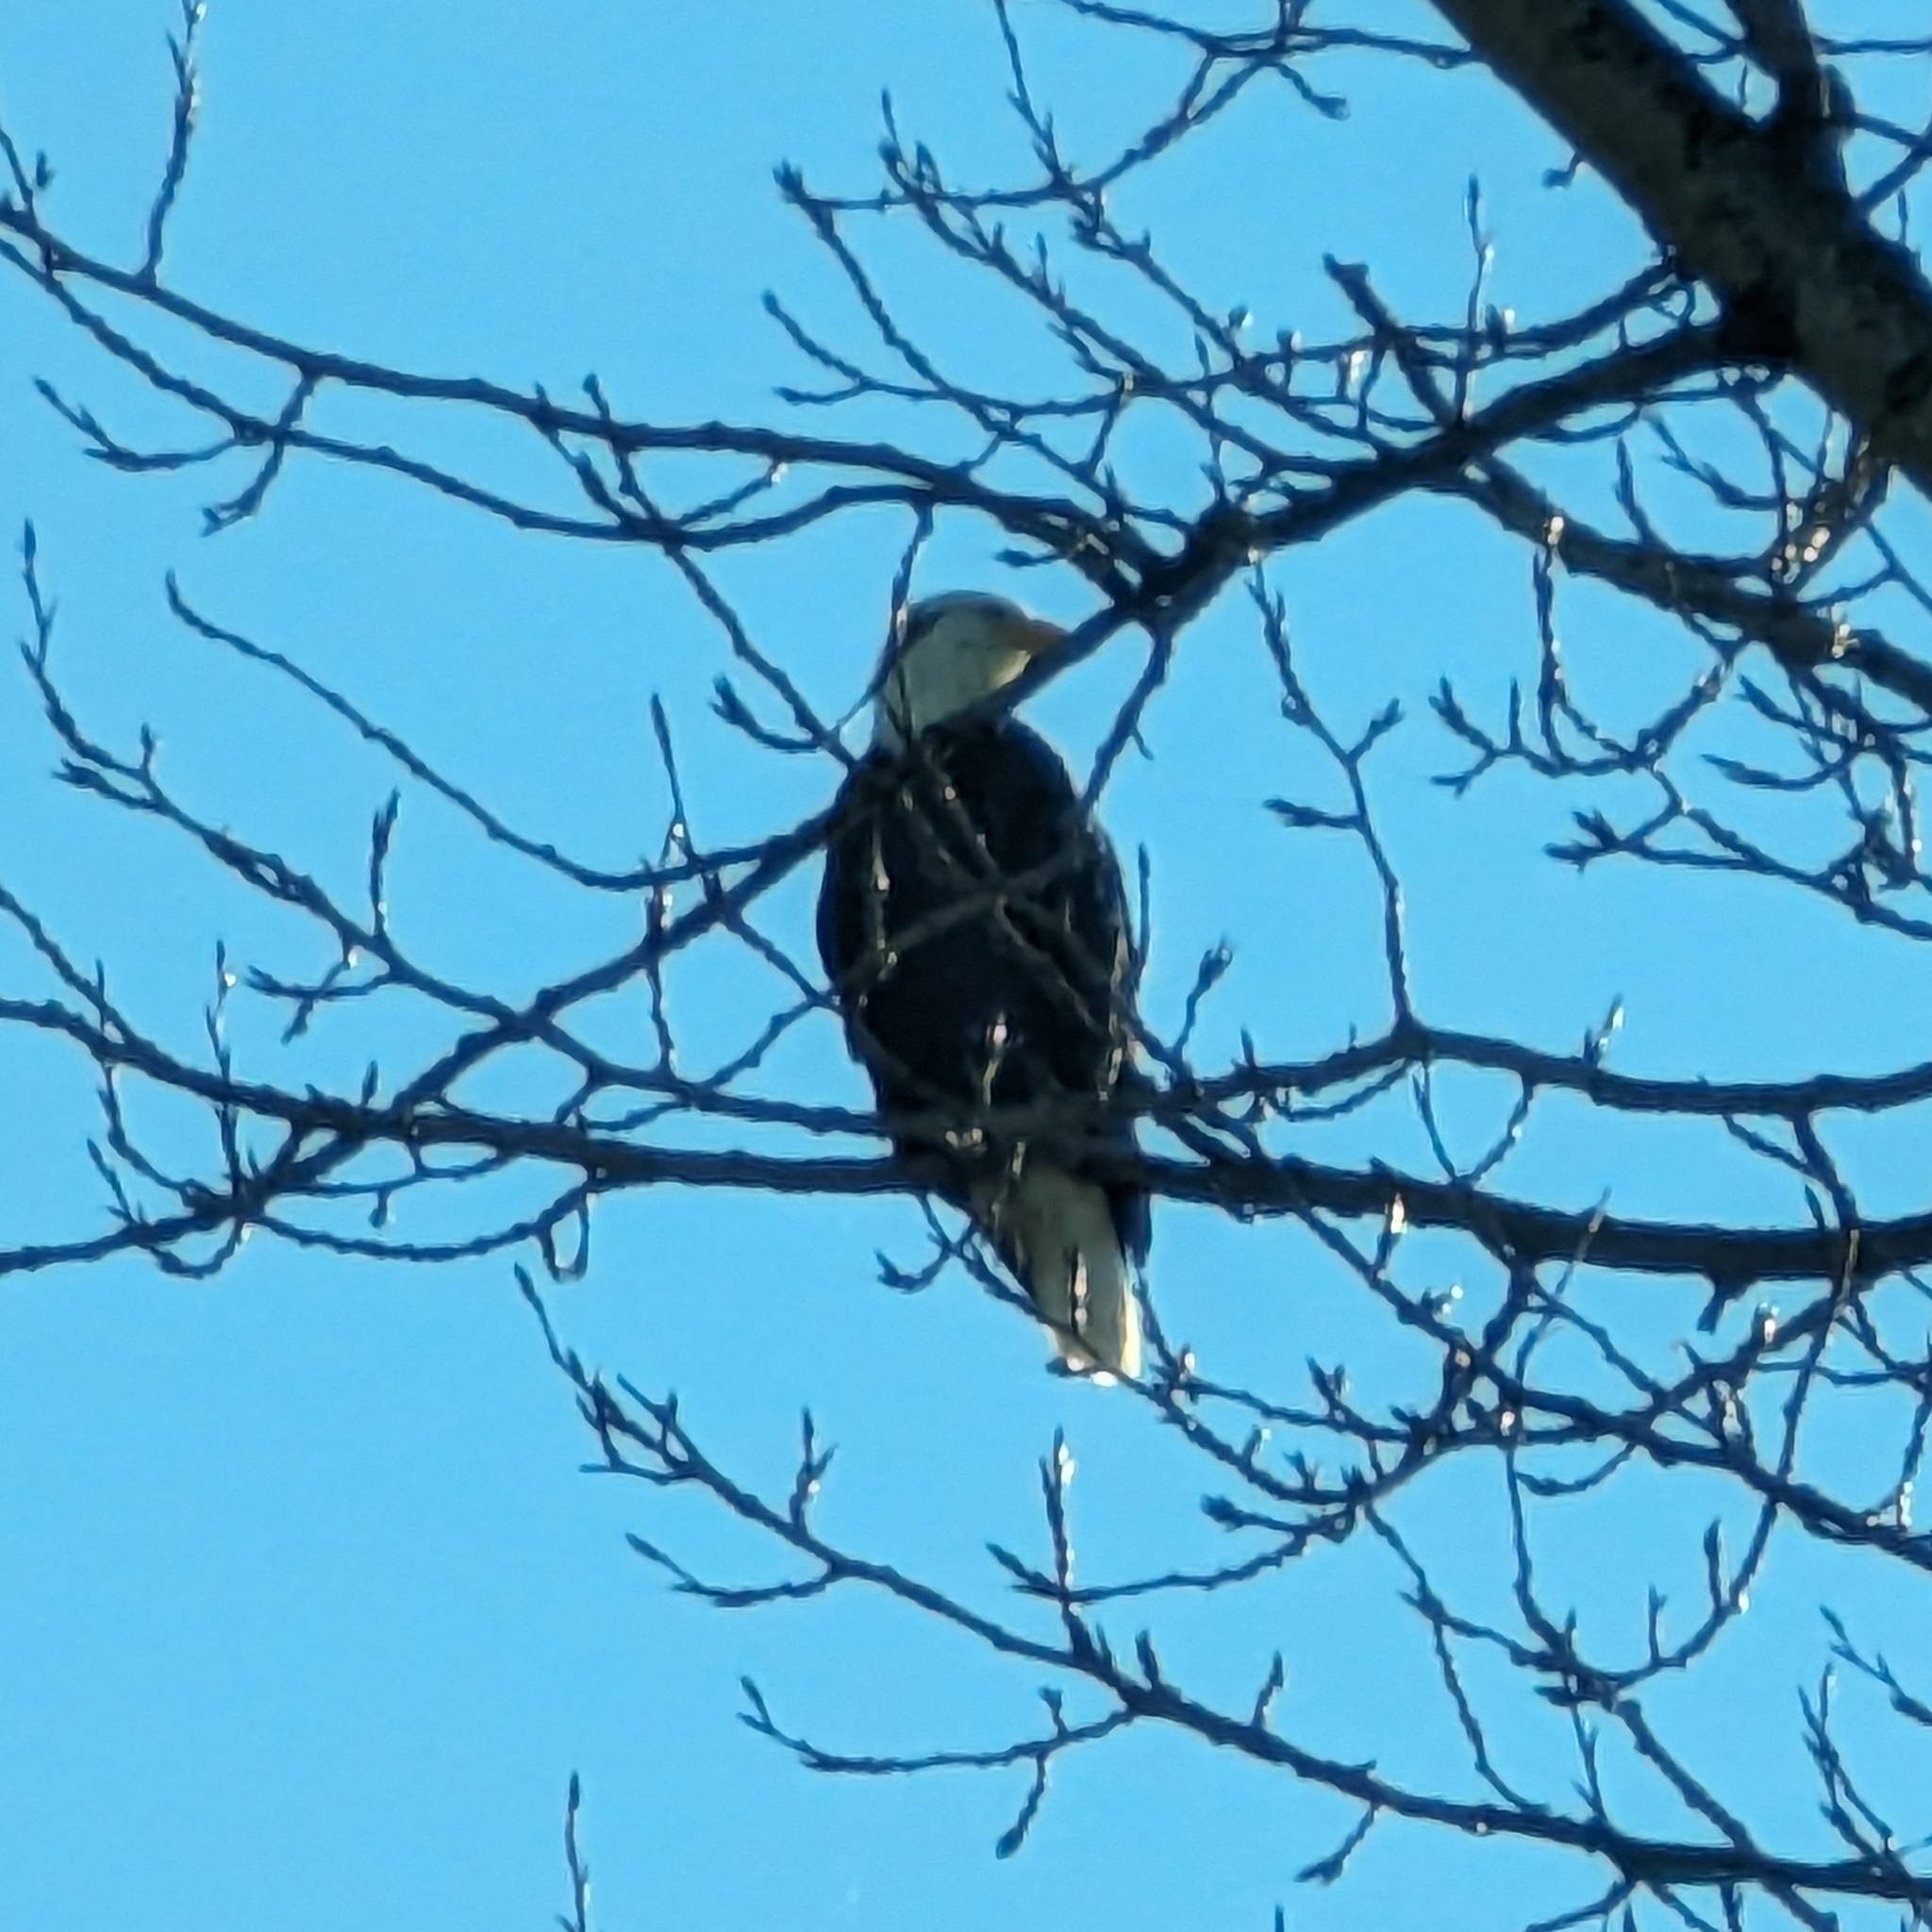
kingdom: Animalia
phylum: Chordata
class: Aves
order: Accipitriformes
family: Accipitridae
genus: Haliaeetus
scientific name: Haliaeetus leucocephalus
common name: Bald eagle
